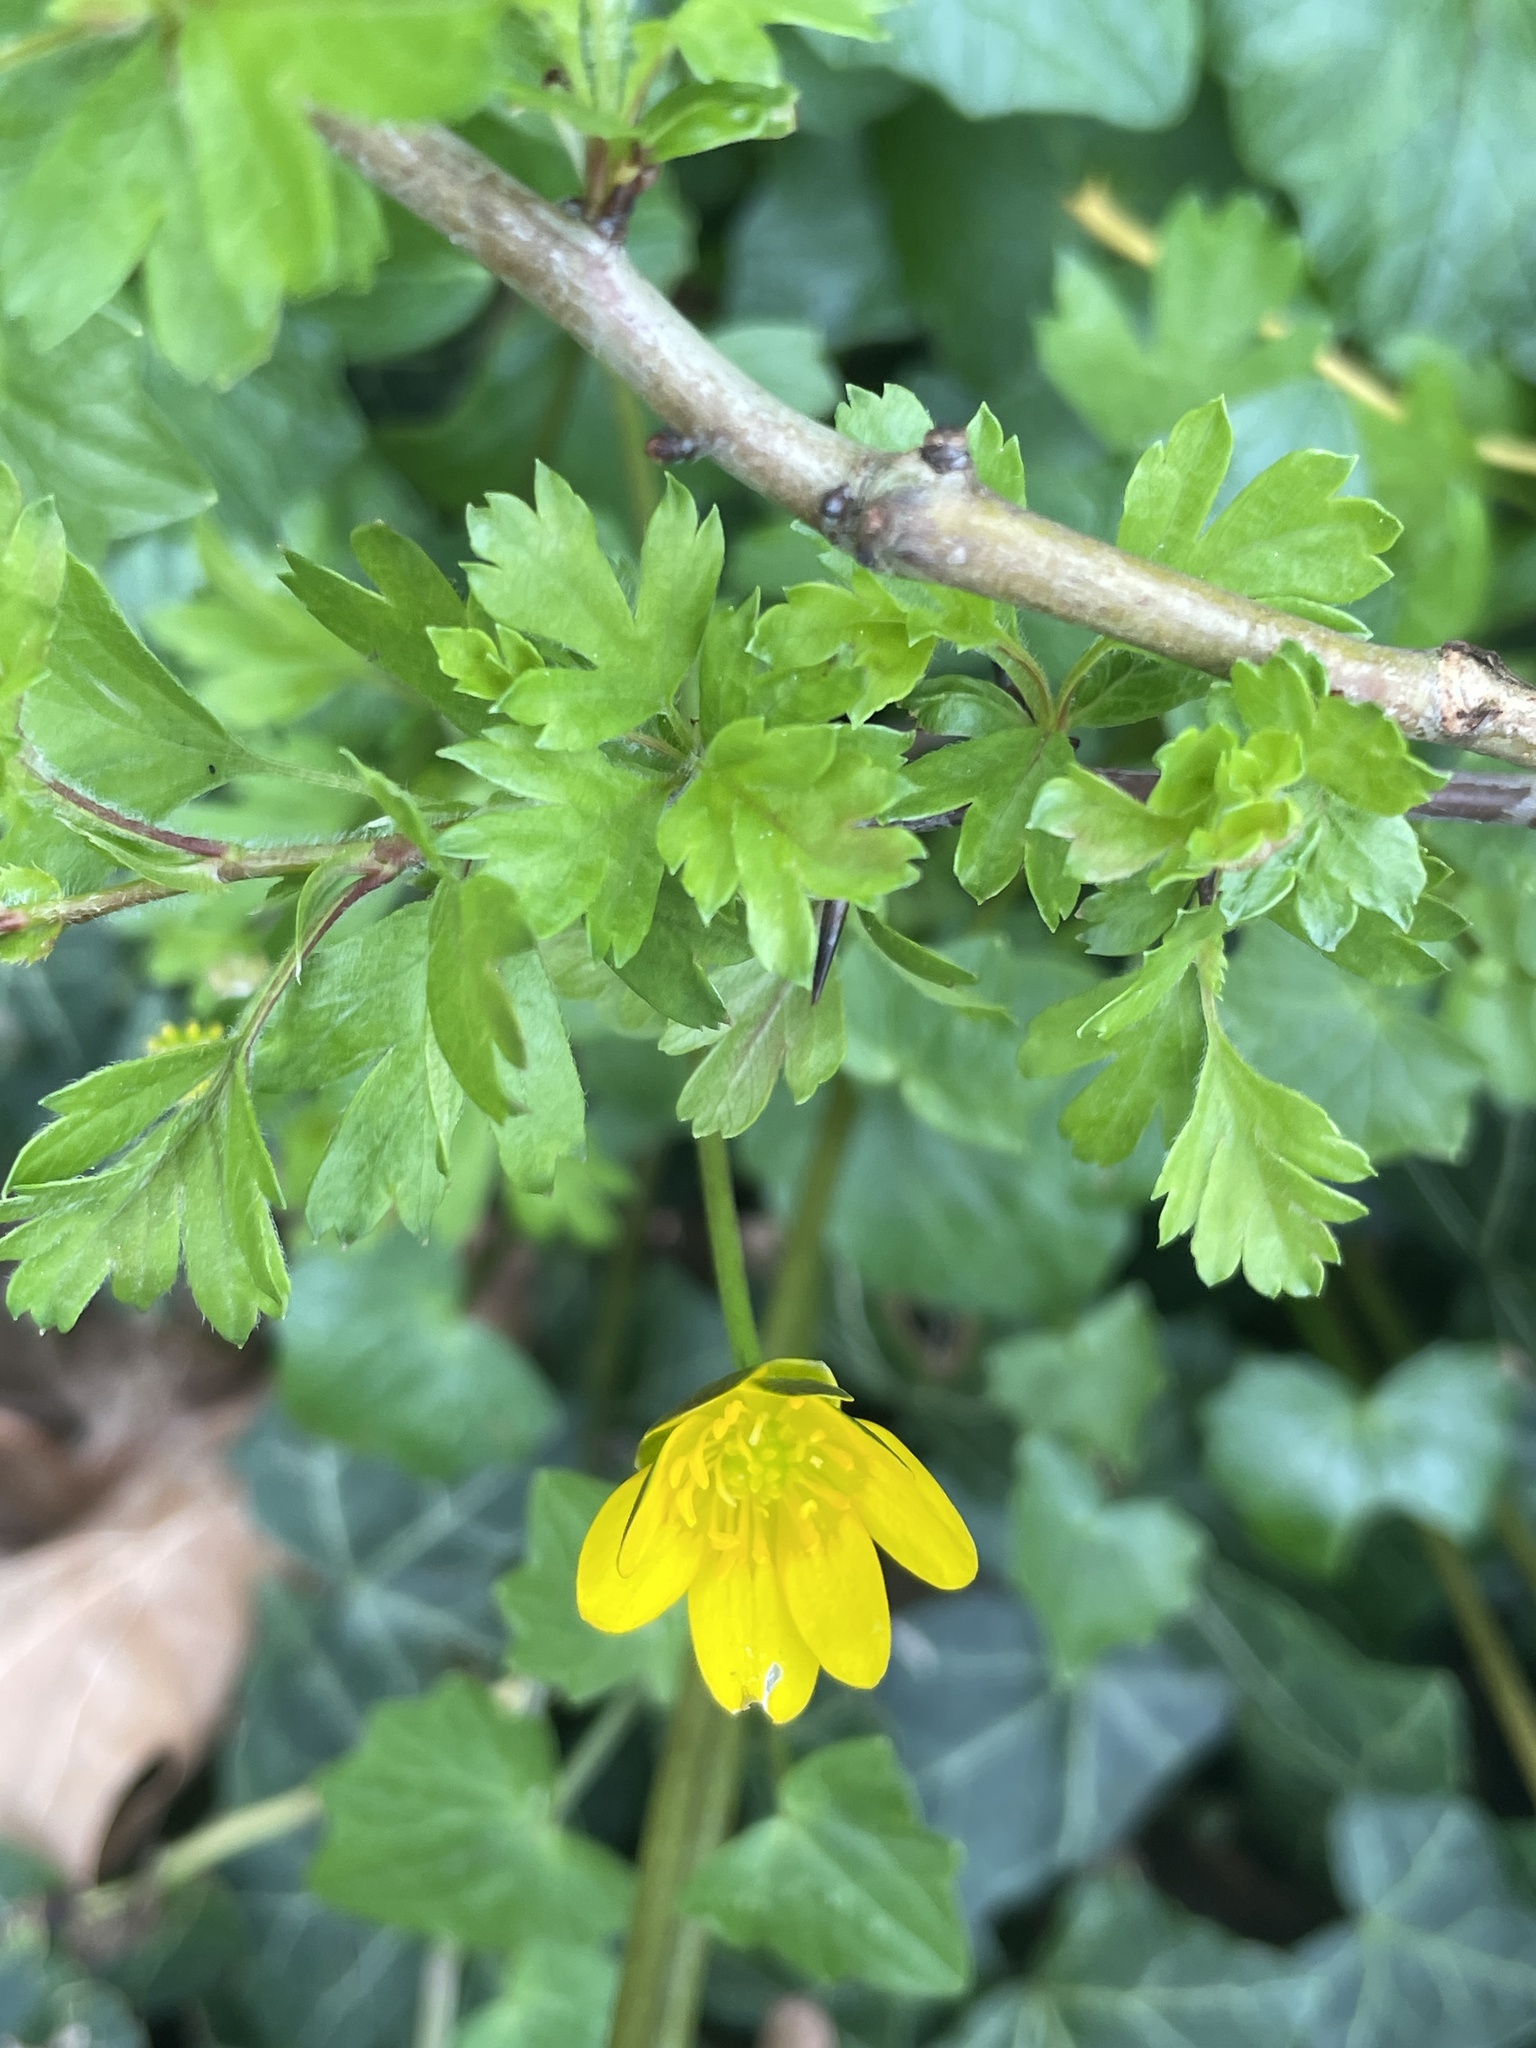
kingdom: Plantae
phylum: Tracheophyta
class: Magnoliopsida
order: Ranunculales
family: Ranunculaceae
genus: Ficaria
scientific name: Ficaria verna
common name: Lesser celandine
